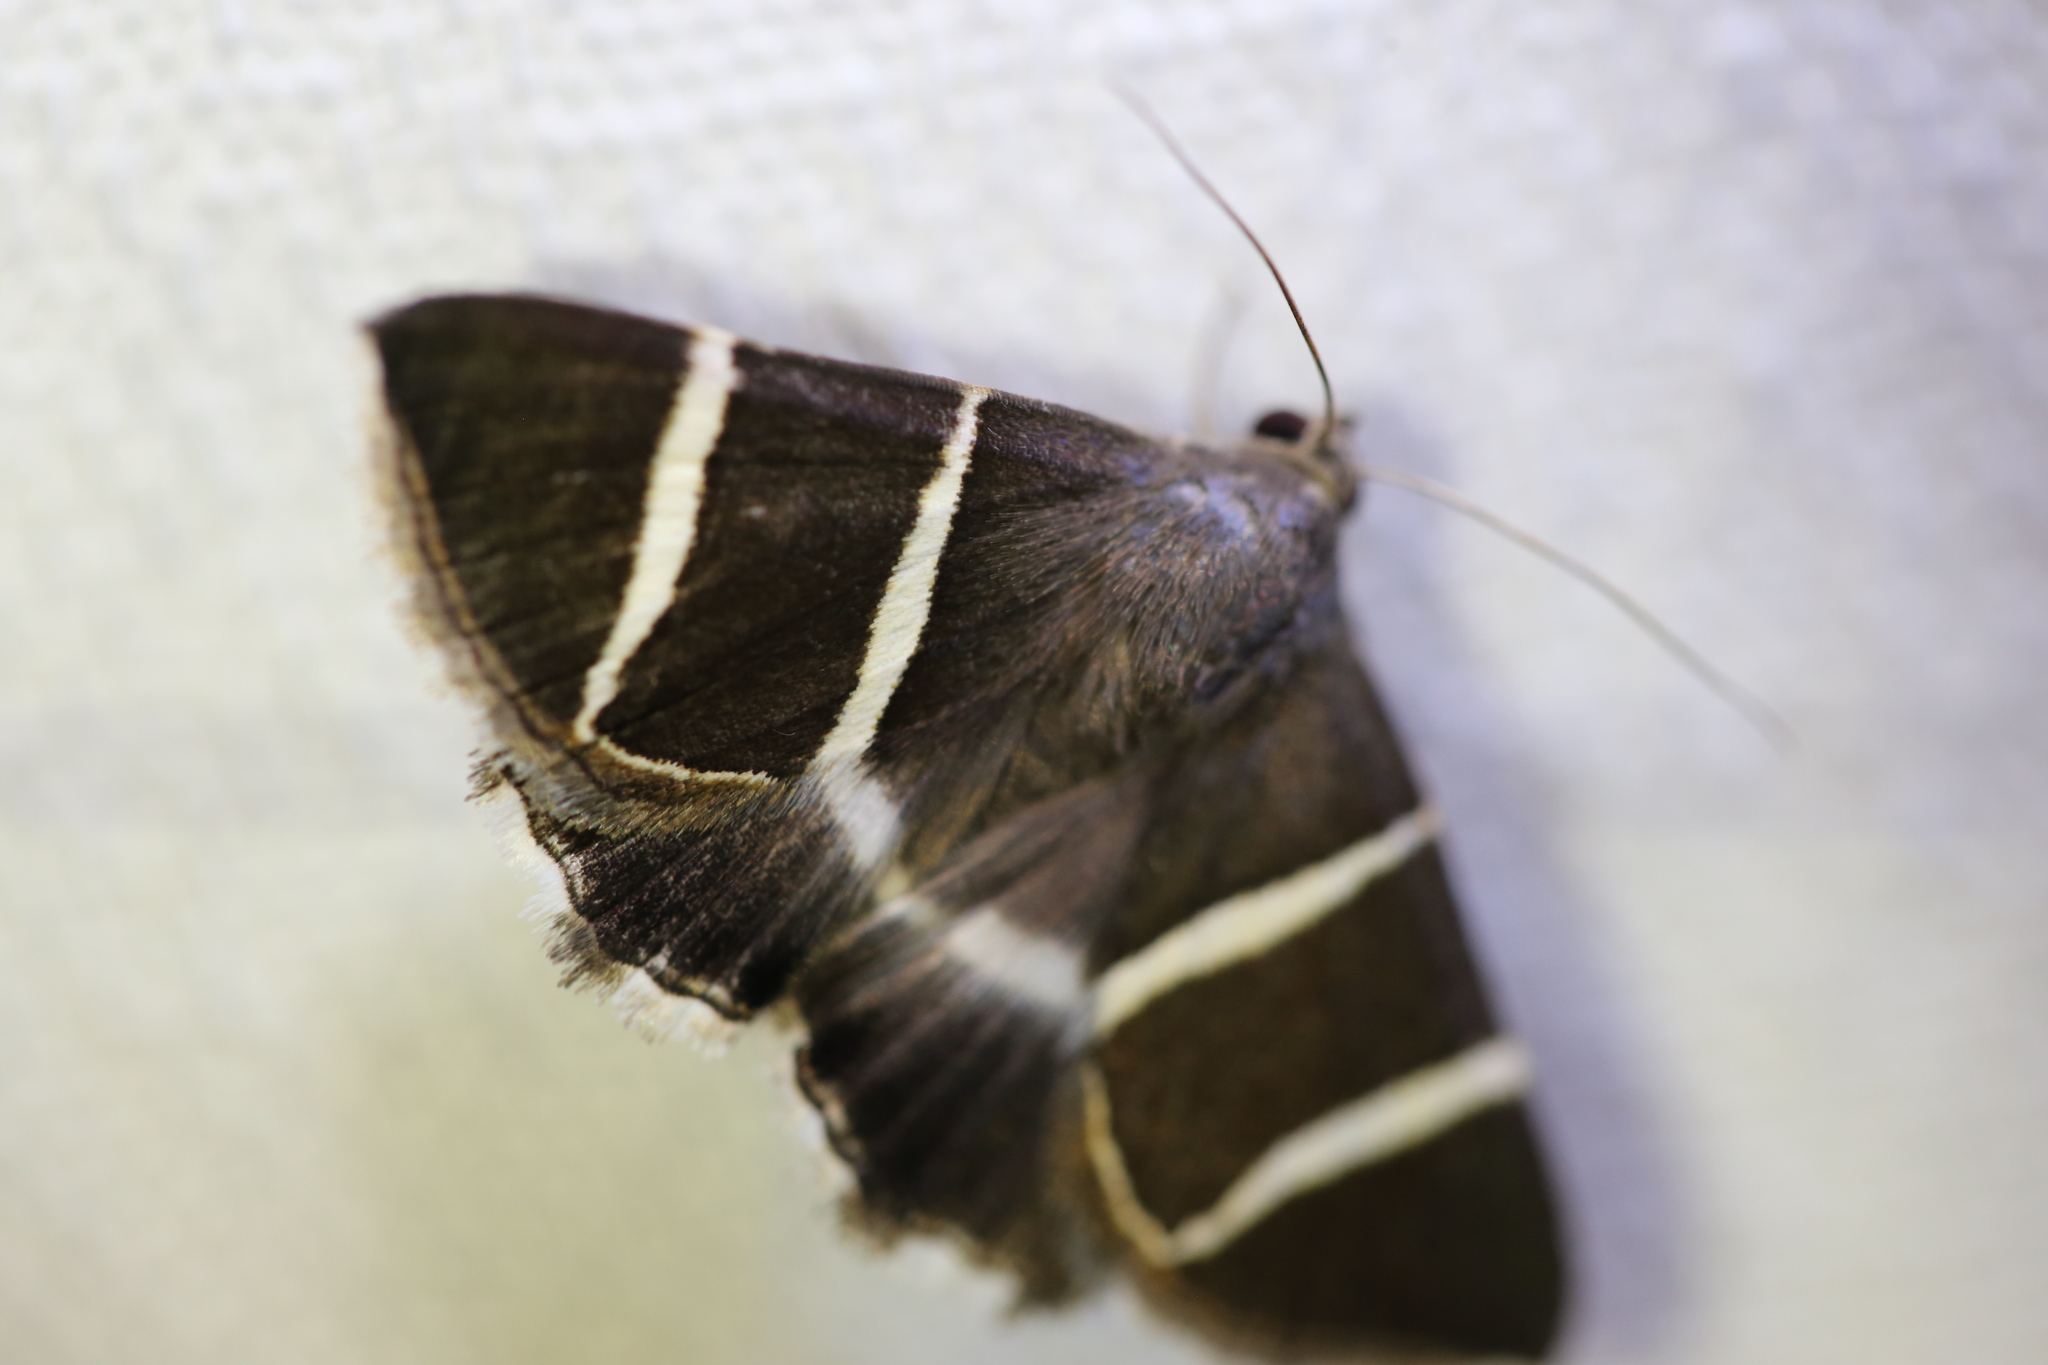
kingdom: Animalia
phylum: Arthropoda
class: Insecta
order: Lepidoptera
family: Erebidae
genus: Grammodes
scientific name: Grammodes justa
